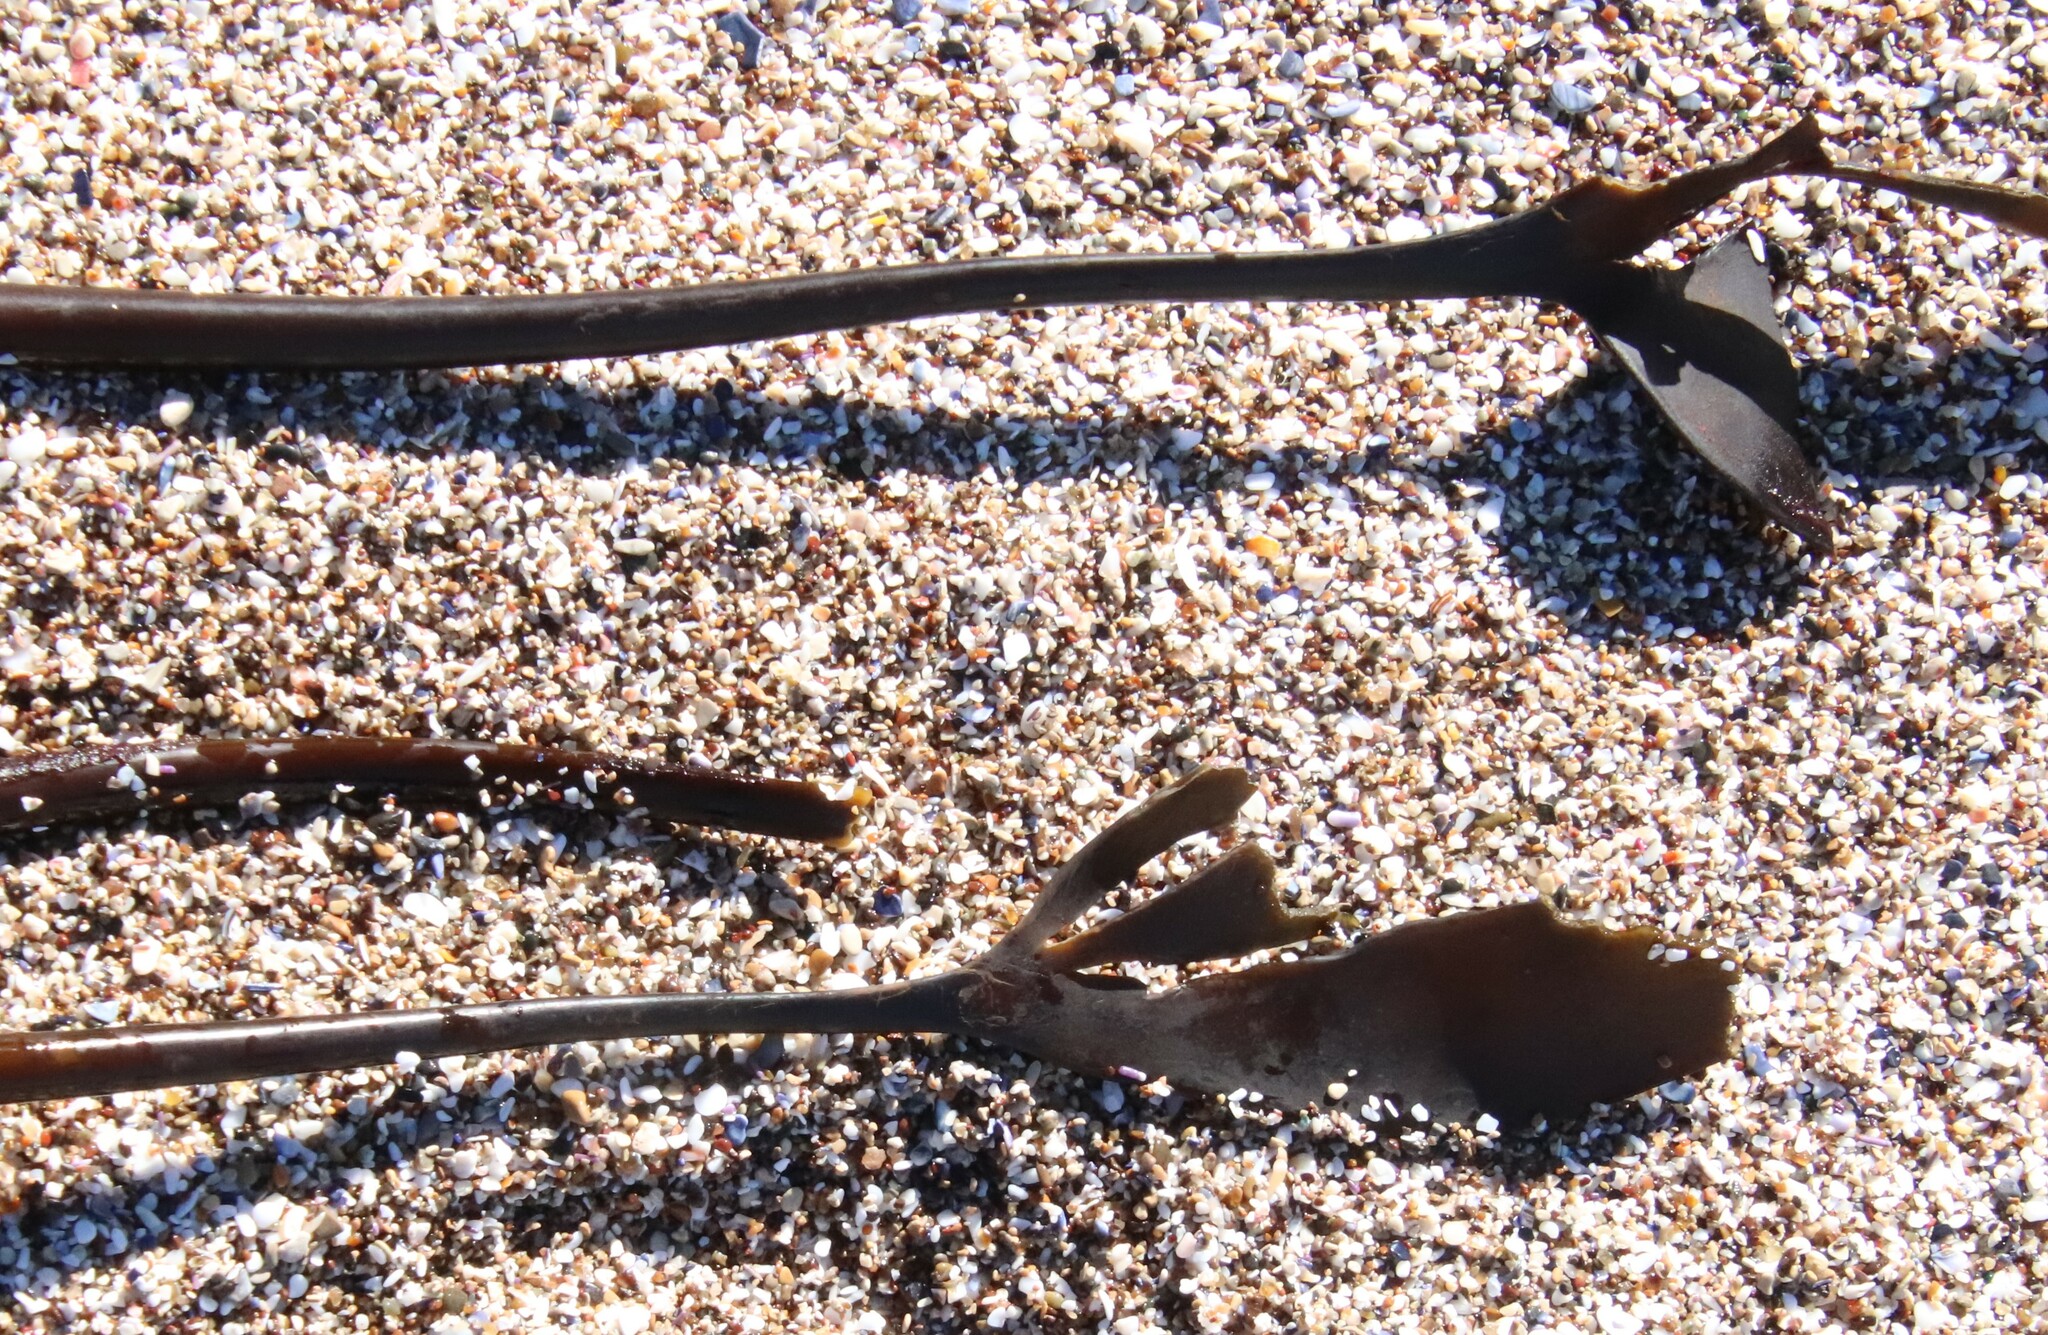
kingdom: Chromista
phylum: Ochrophyta
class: Phaeophyceae
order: Laminariales
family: Laminariaceae
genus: Laminaria
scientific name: Laminaria setchellii
